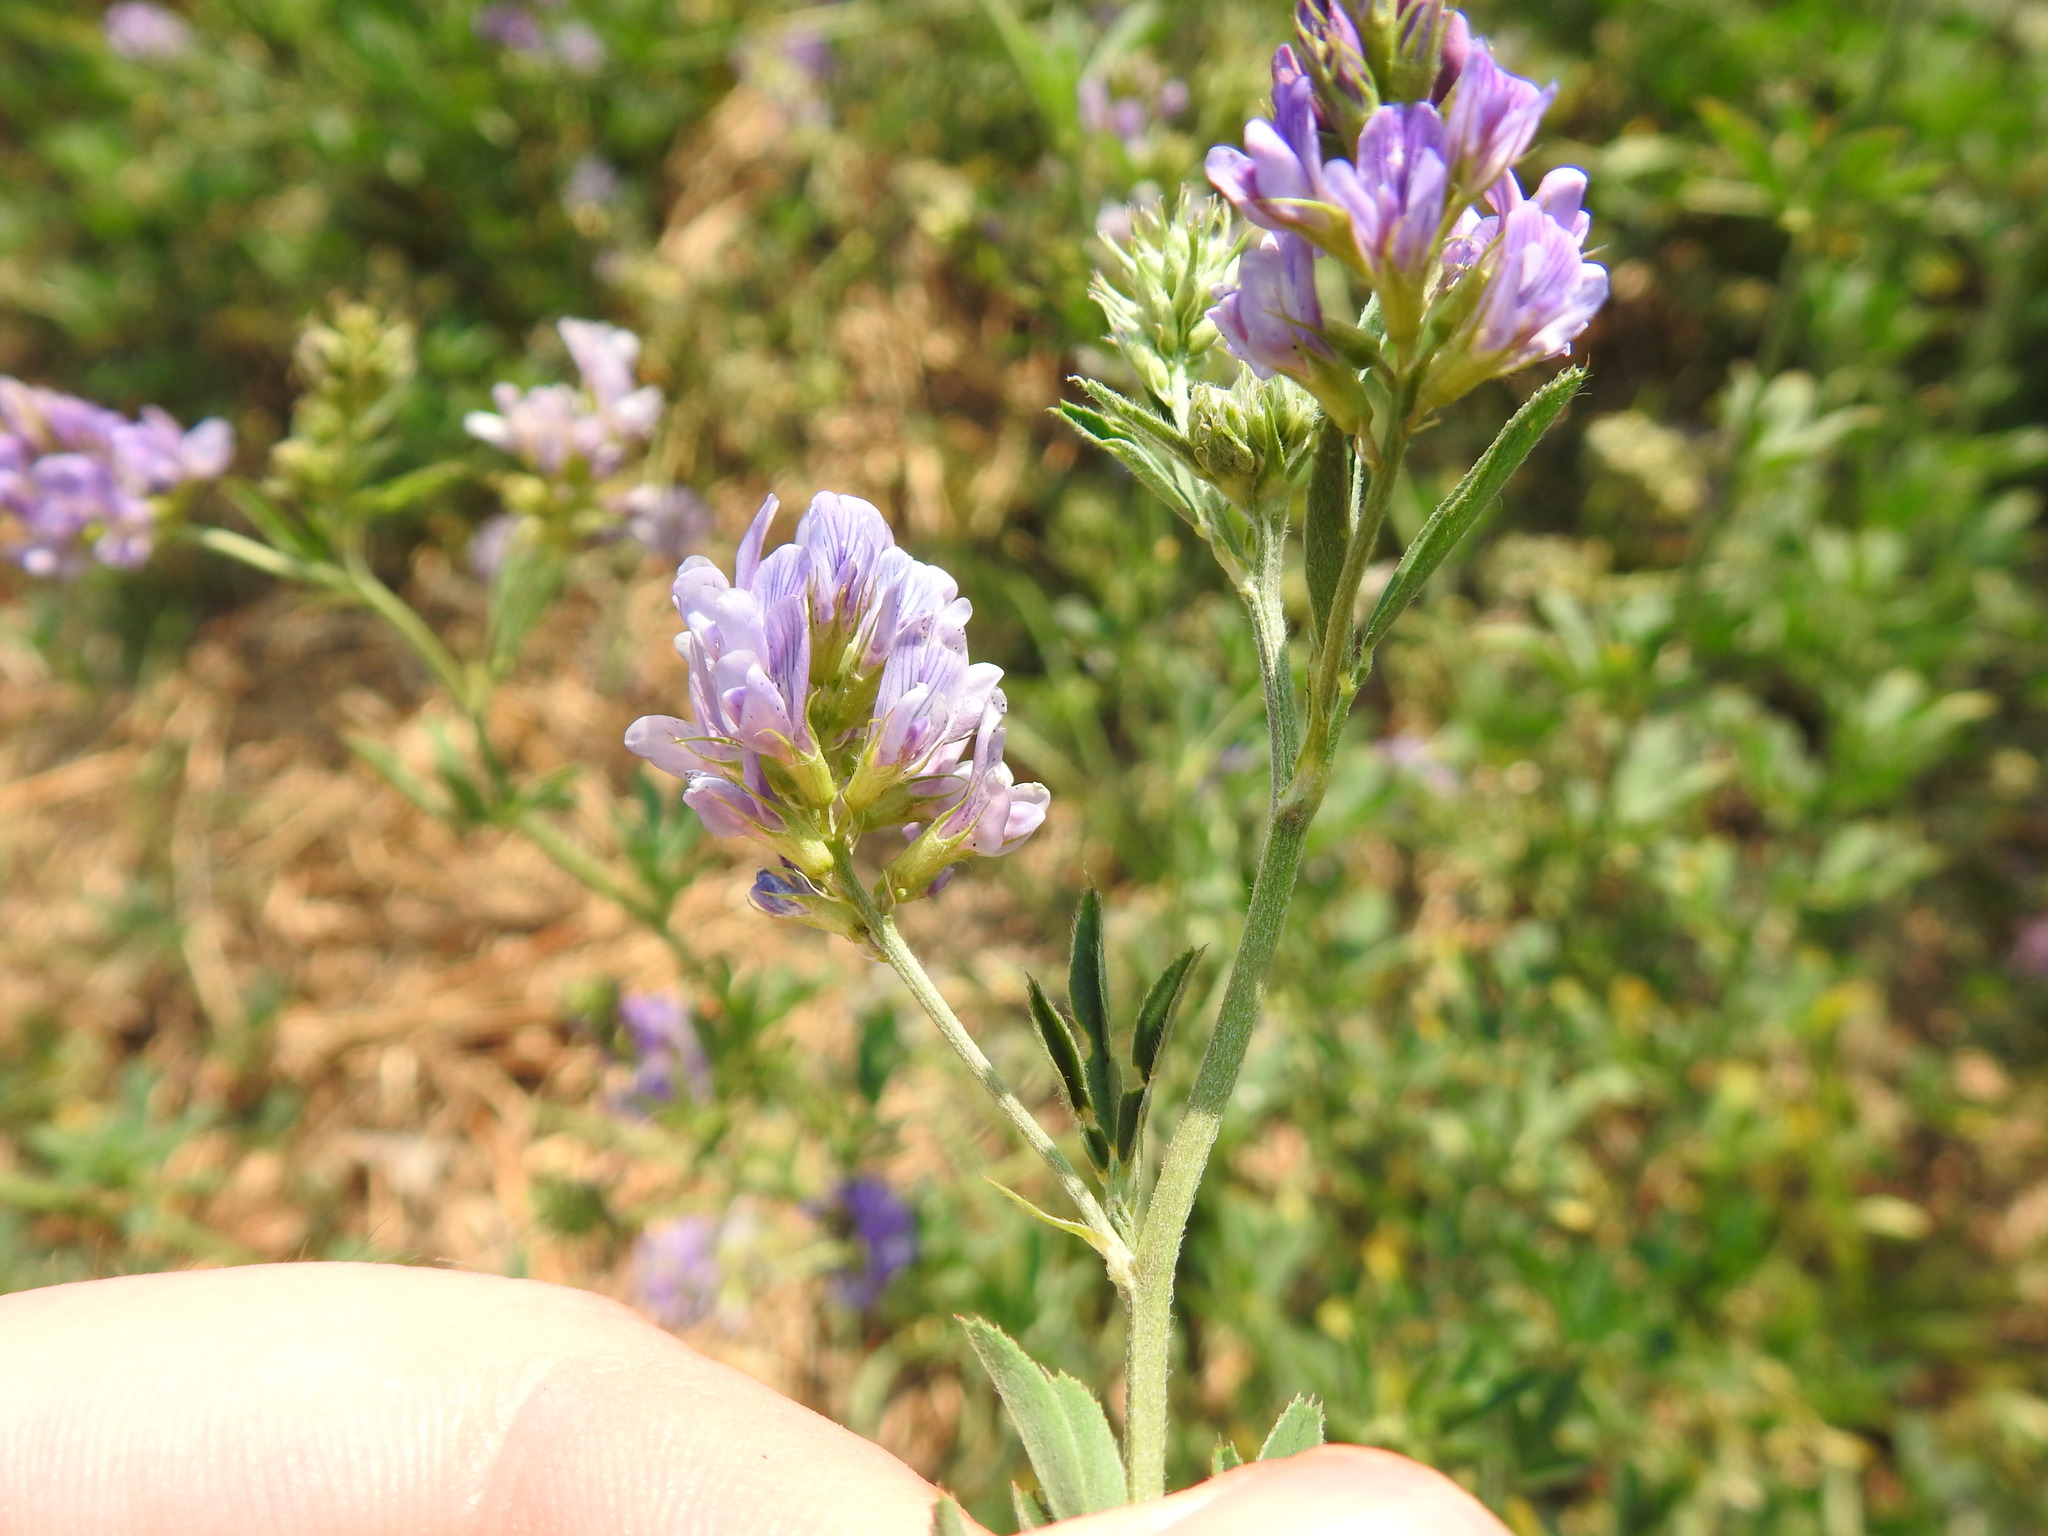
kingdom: Plantae
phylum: Tracheophyta
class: Magnoliopsida
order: Fabales
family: Fabaceae
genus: Psoralea
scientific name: Psoralea polysticta
